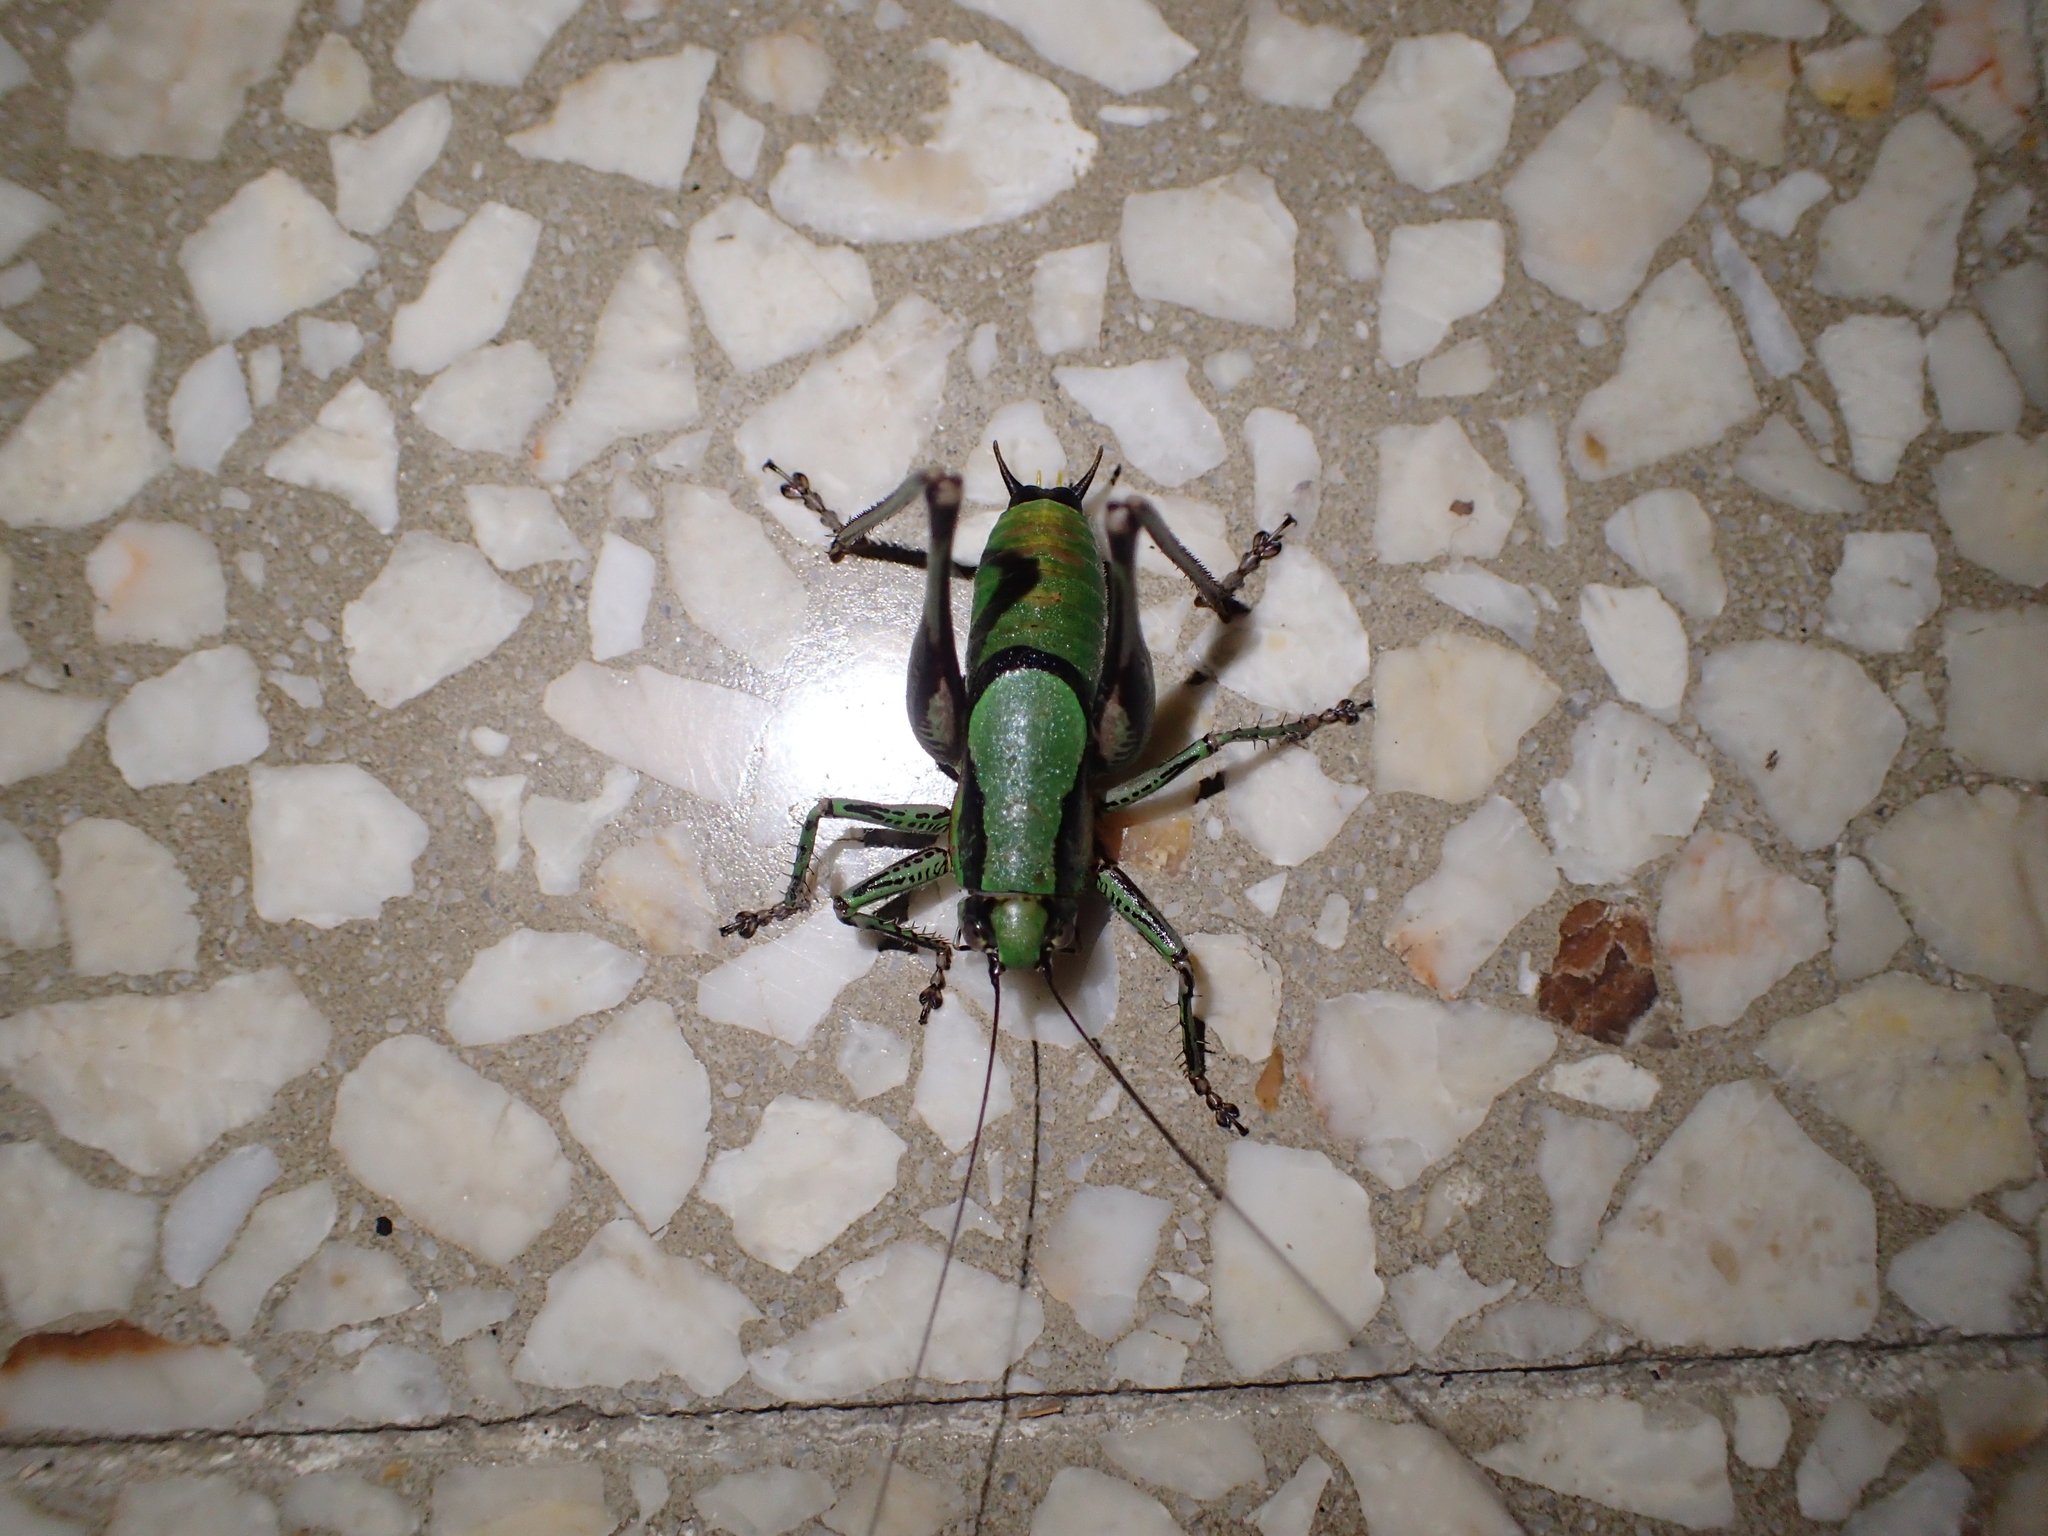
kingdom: Animalia
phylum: Arthropoda
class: Insecta
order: Orthoptera
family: Tettigoniidae
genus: Eupholidoptera
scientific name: Eupholidoptera schmidti
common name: Schmidt's marbled bush-cricket
